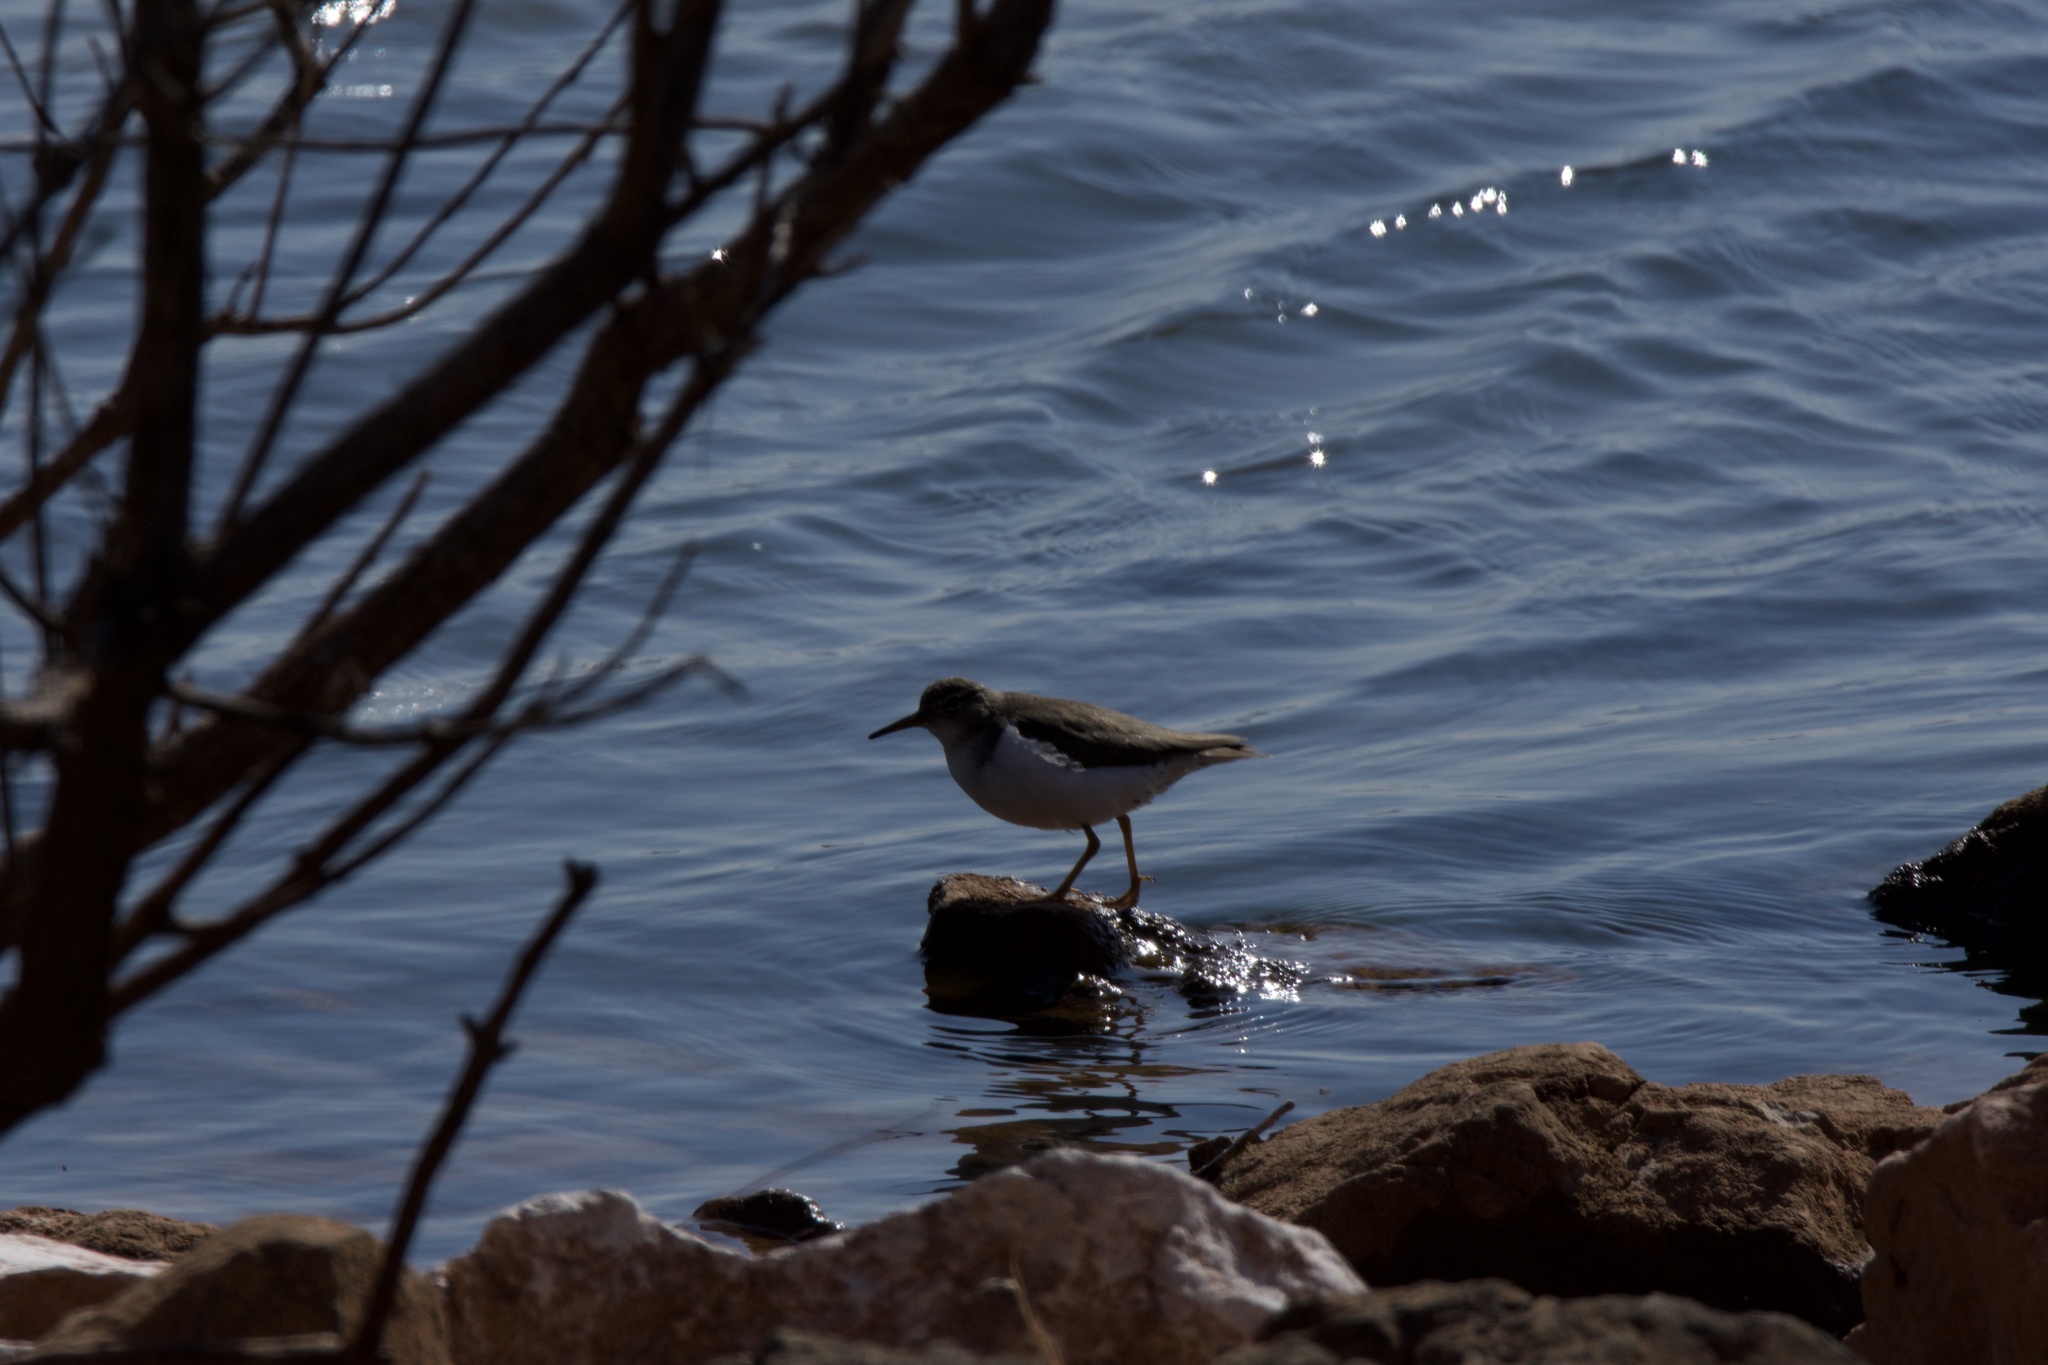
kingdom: Animalia
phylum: Chordata
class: Aves
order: Charadriiformes
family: Scolopacidae
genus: Actitis
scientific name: Actitis macularius
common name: Spotted sandpiper
